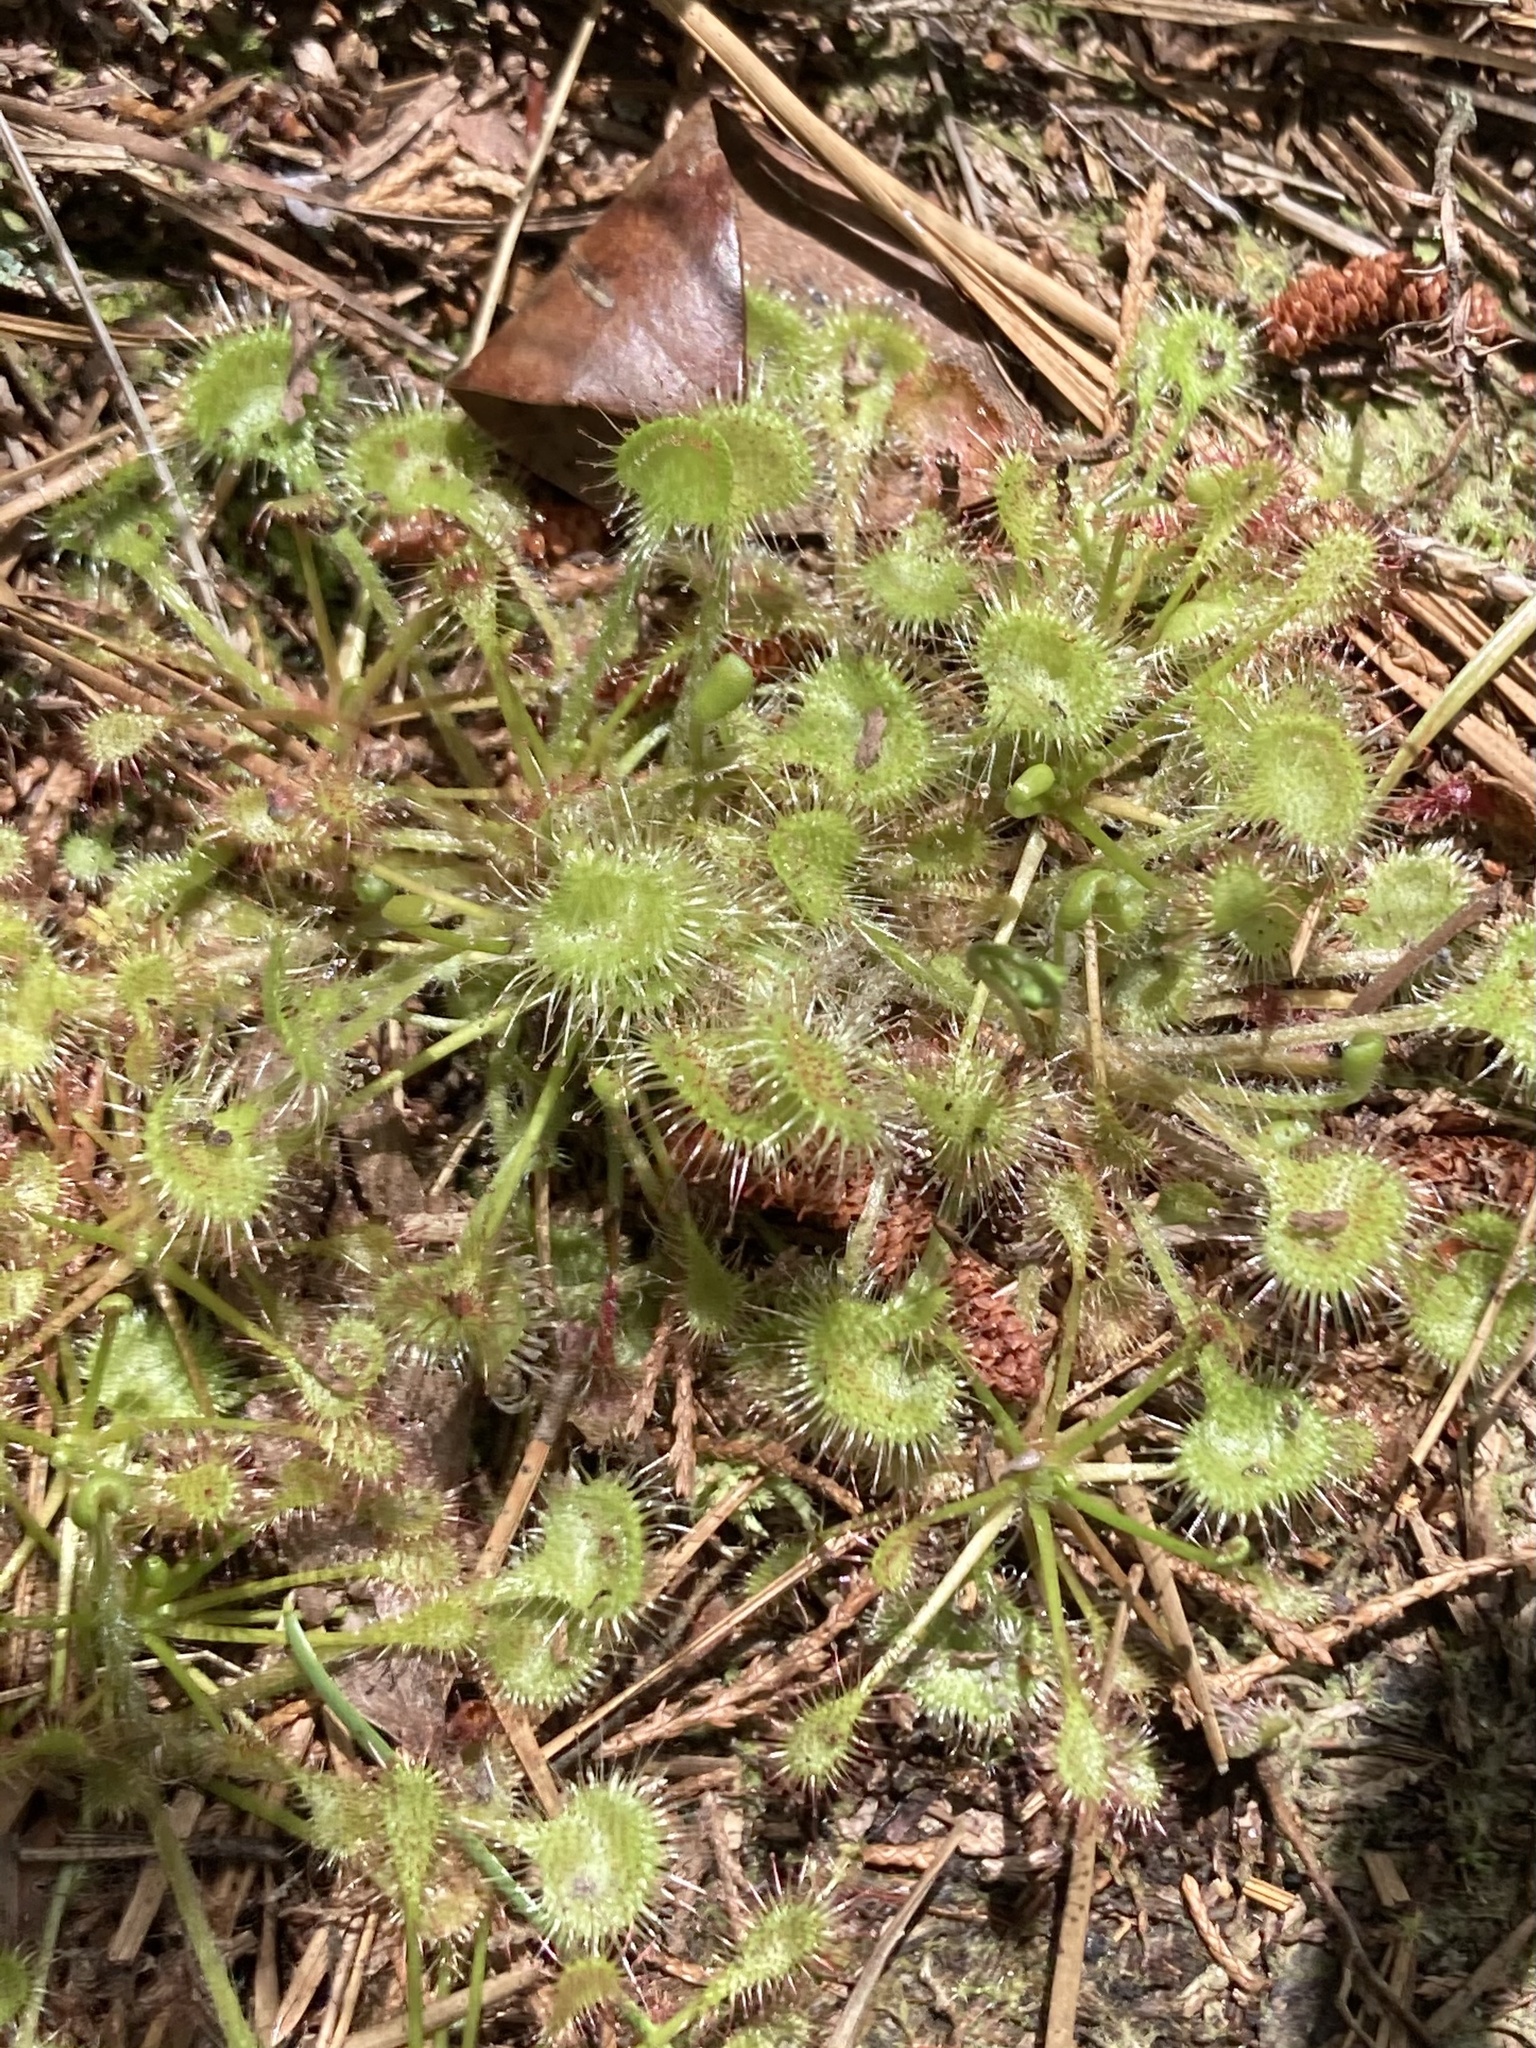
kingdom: Plantae
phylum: Tracheophyta
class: Magnoliopsida
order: Caryophyllales
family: Droseraceae
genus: Drosera
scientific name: Drosera rotundifolia
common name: Round-leaved sundew
